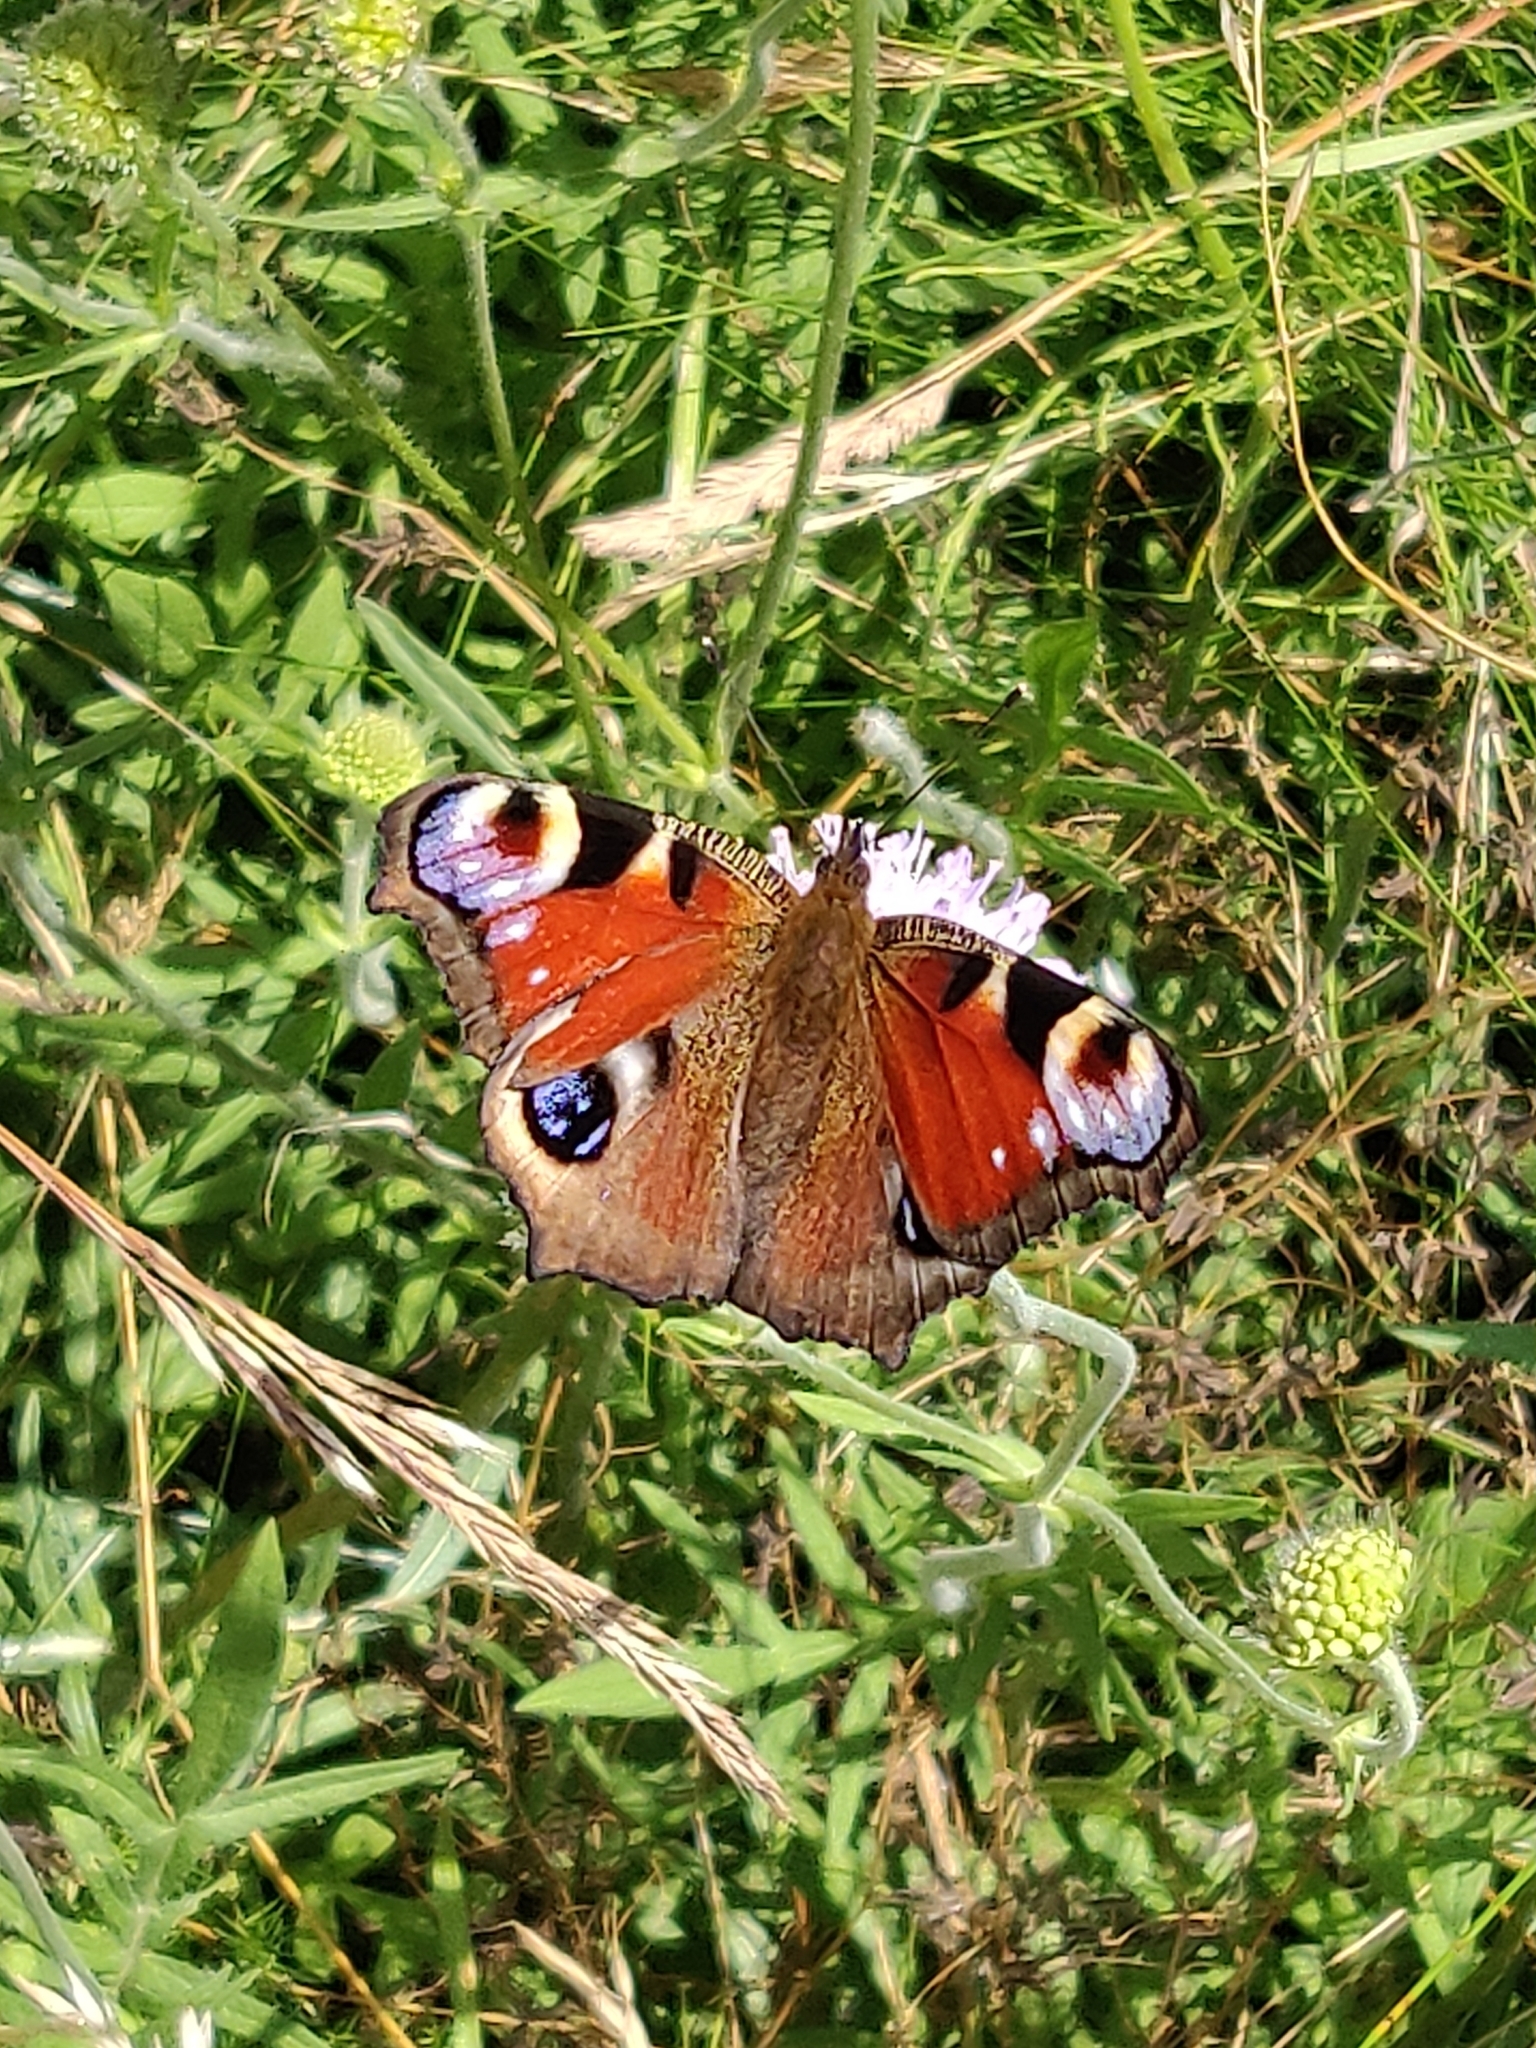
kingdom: Animalia
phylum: Arthropoda
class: Insecta
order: Lepidoptera
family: Nymphalidae
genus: Aglais
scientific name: Aglais io
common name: Peacock
